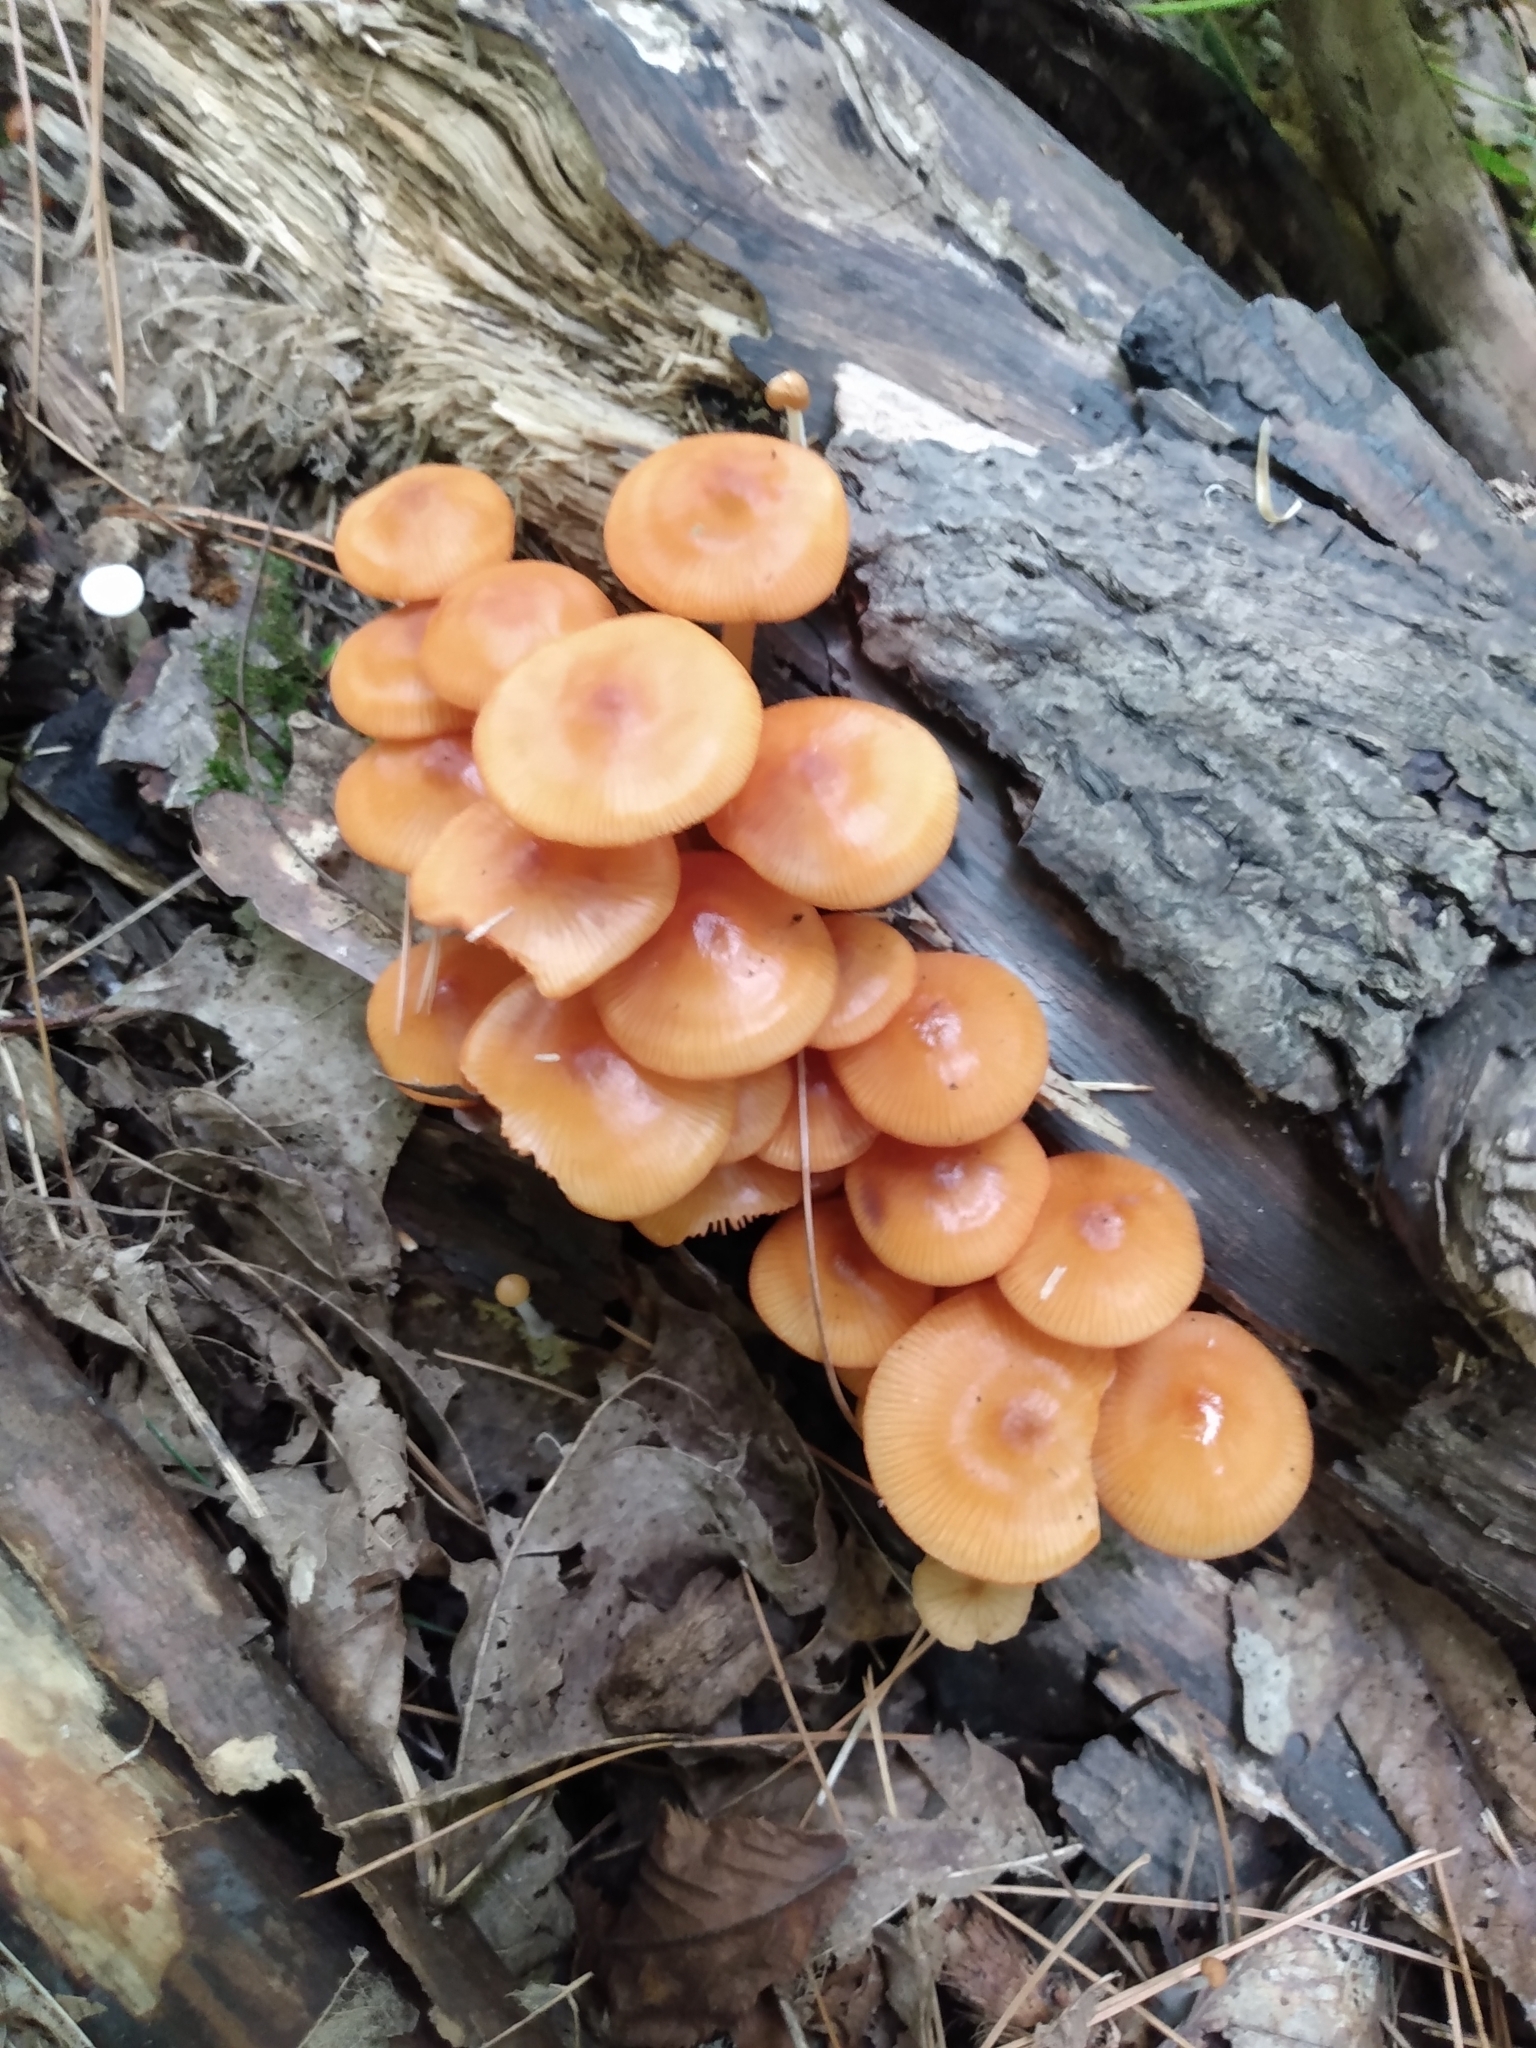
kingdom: Fungi
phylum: Basidiomycota
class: Agaricomycetes
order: Agaricales
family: Mycenaceae
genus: Mycena
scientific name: Mycena leaiana
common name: Orange mycena
